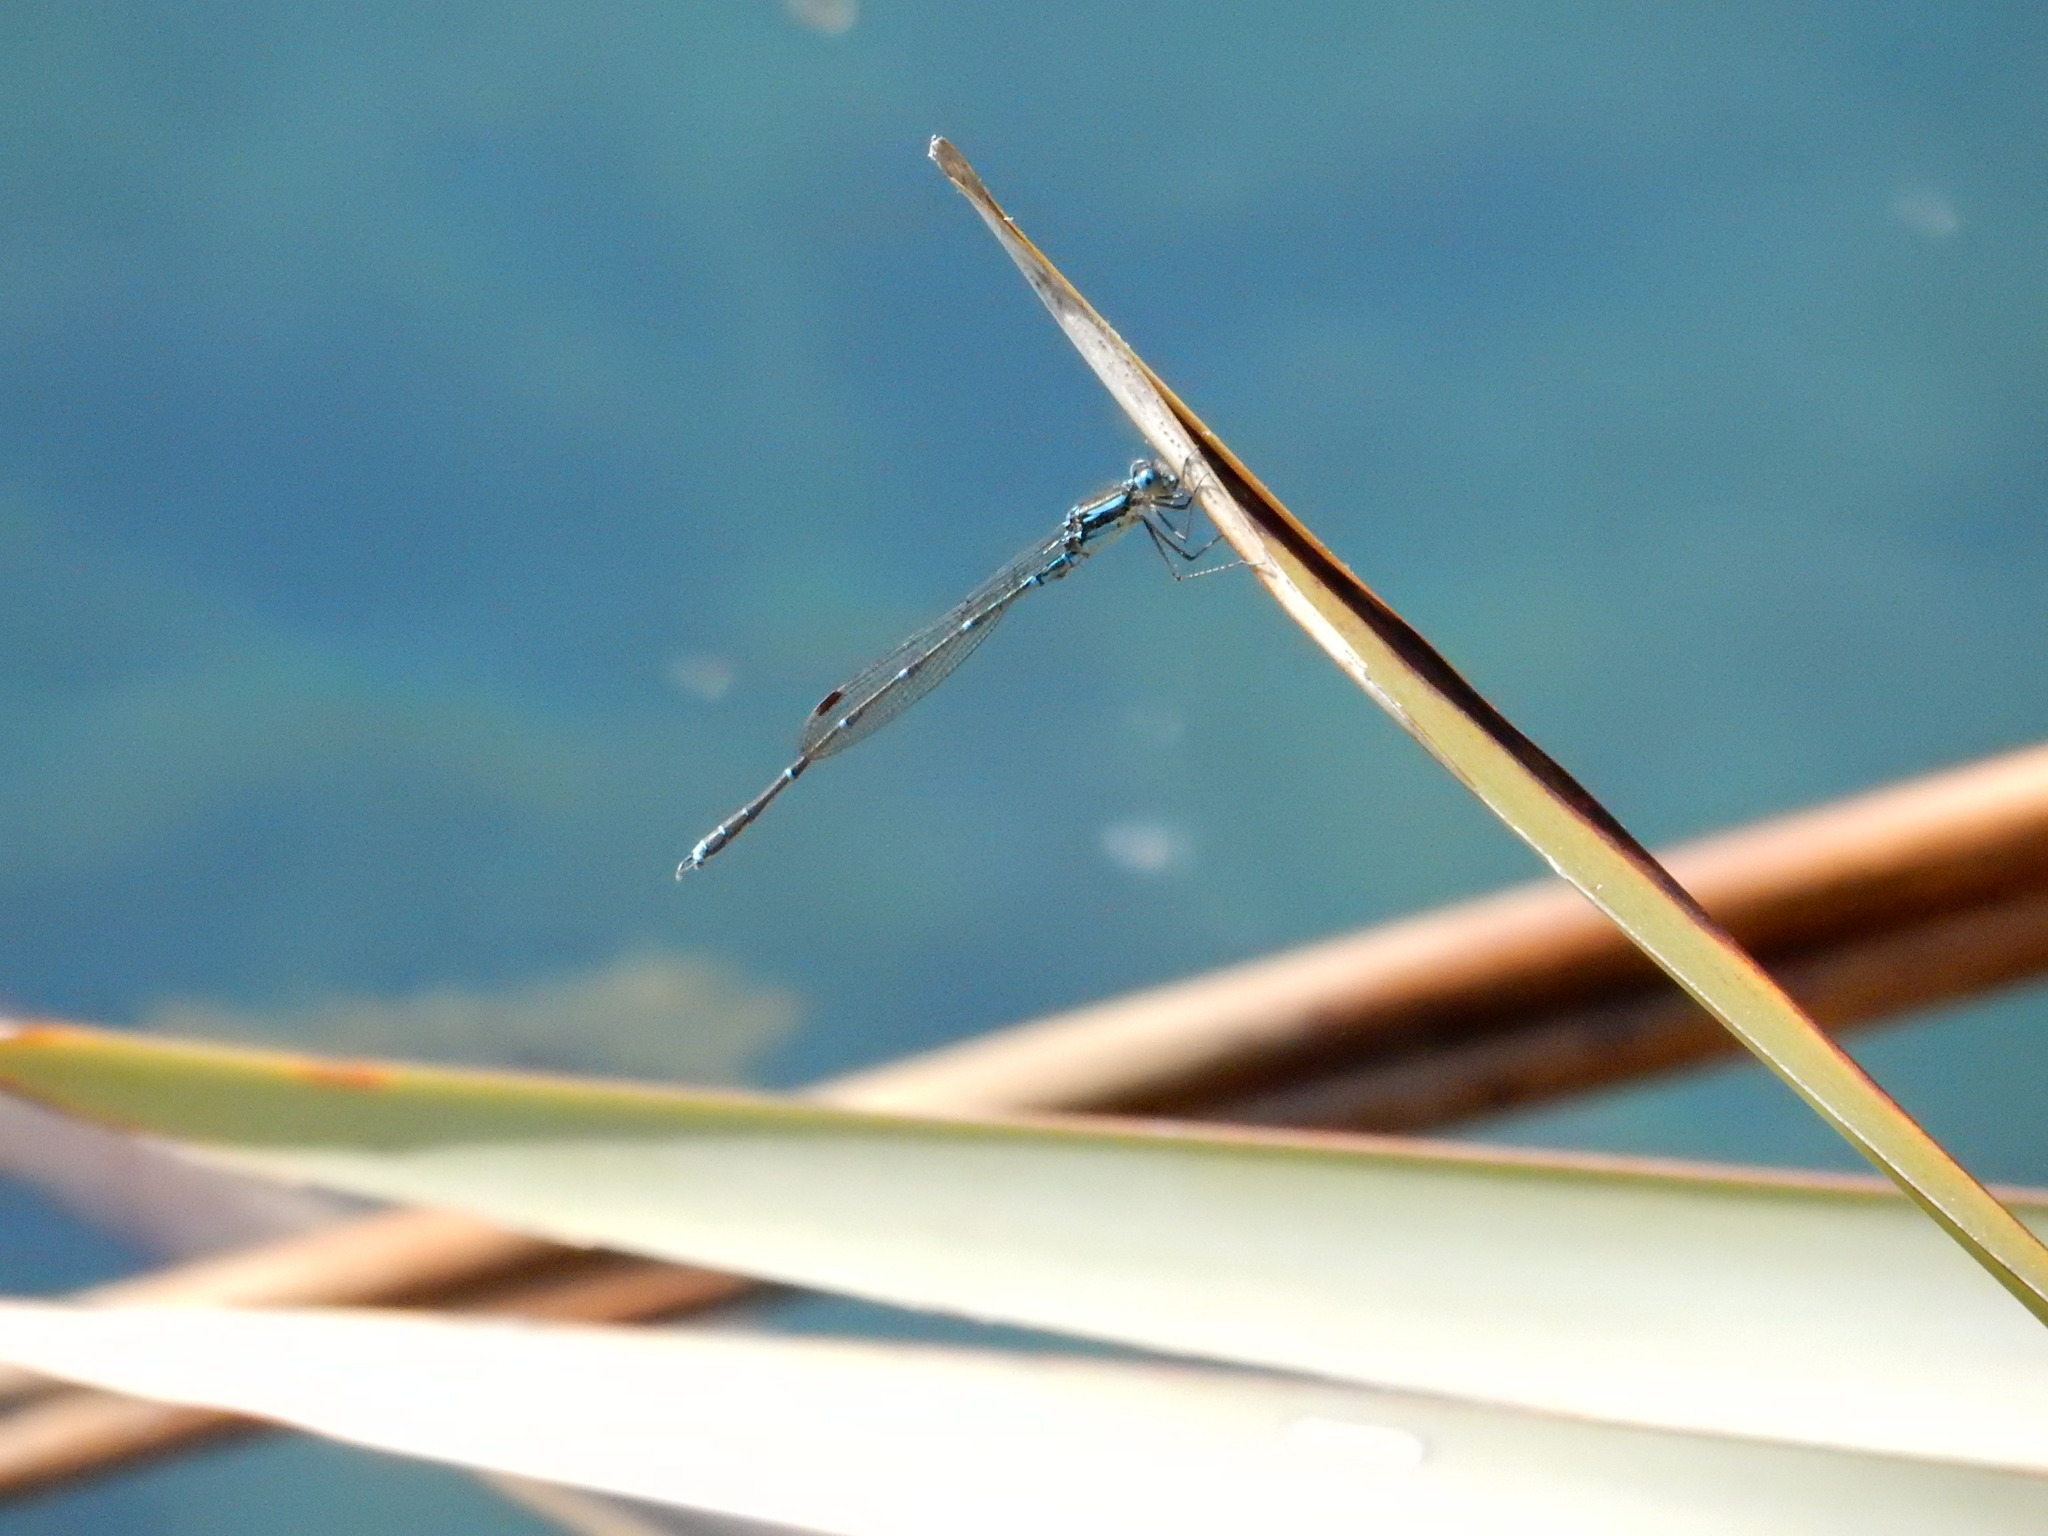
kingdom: Animalia
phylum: Arthropoda
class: Insecta
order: Odonata
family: Lestidae
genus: Austrolestes
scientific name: Austrolestes colensonis
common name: Blue damselfly
